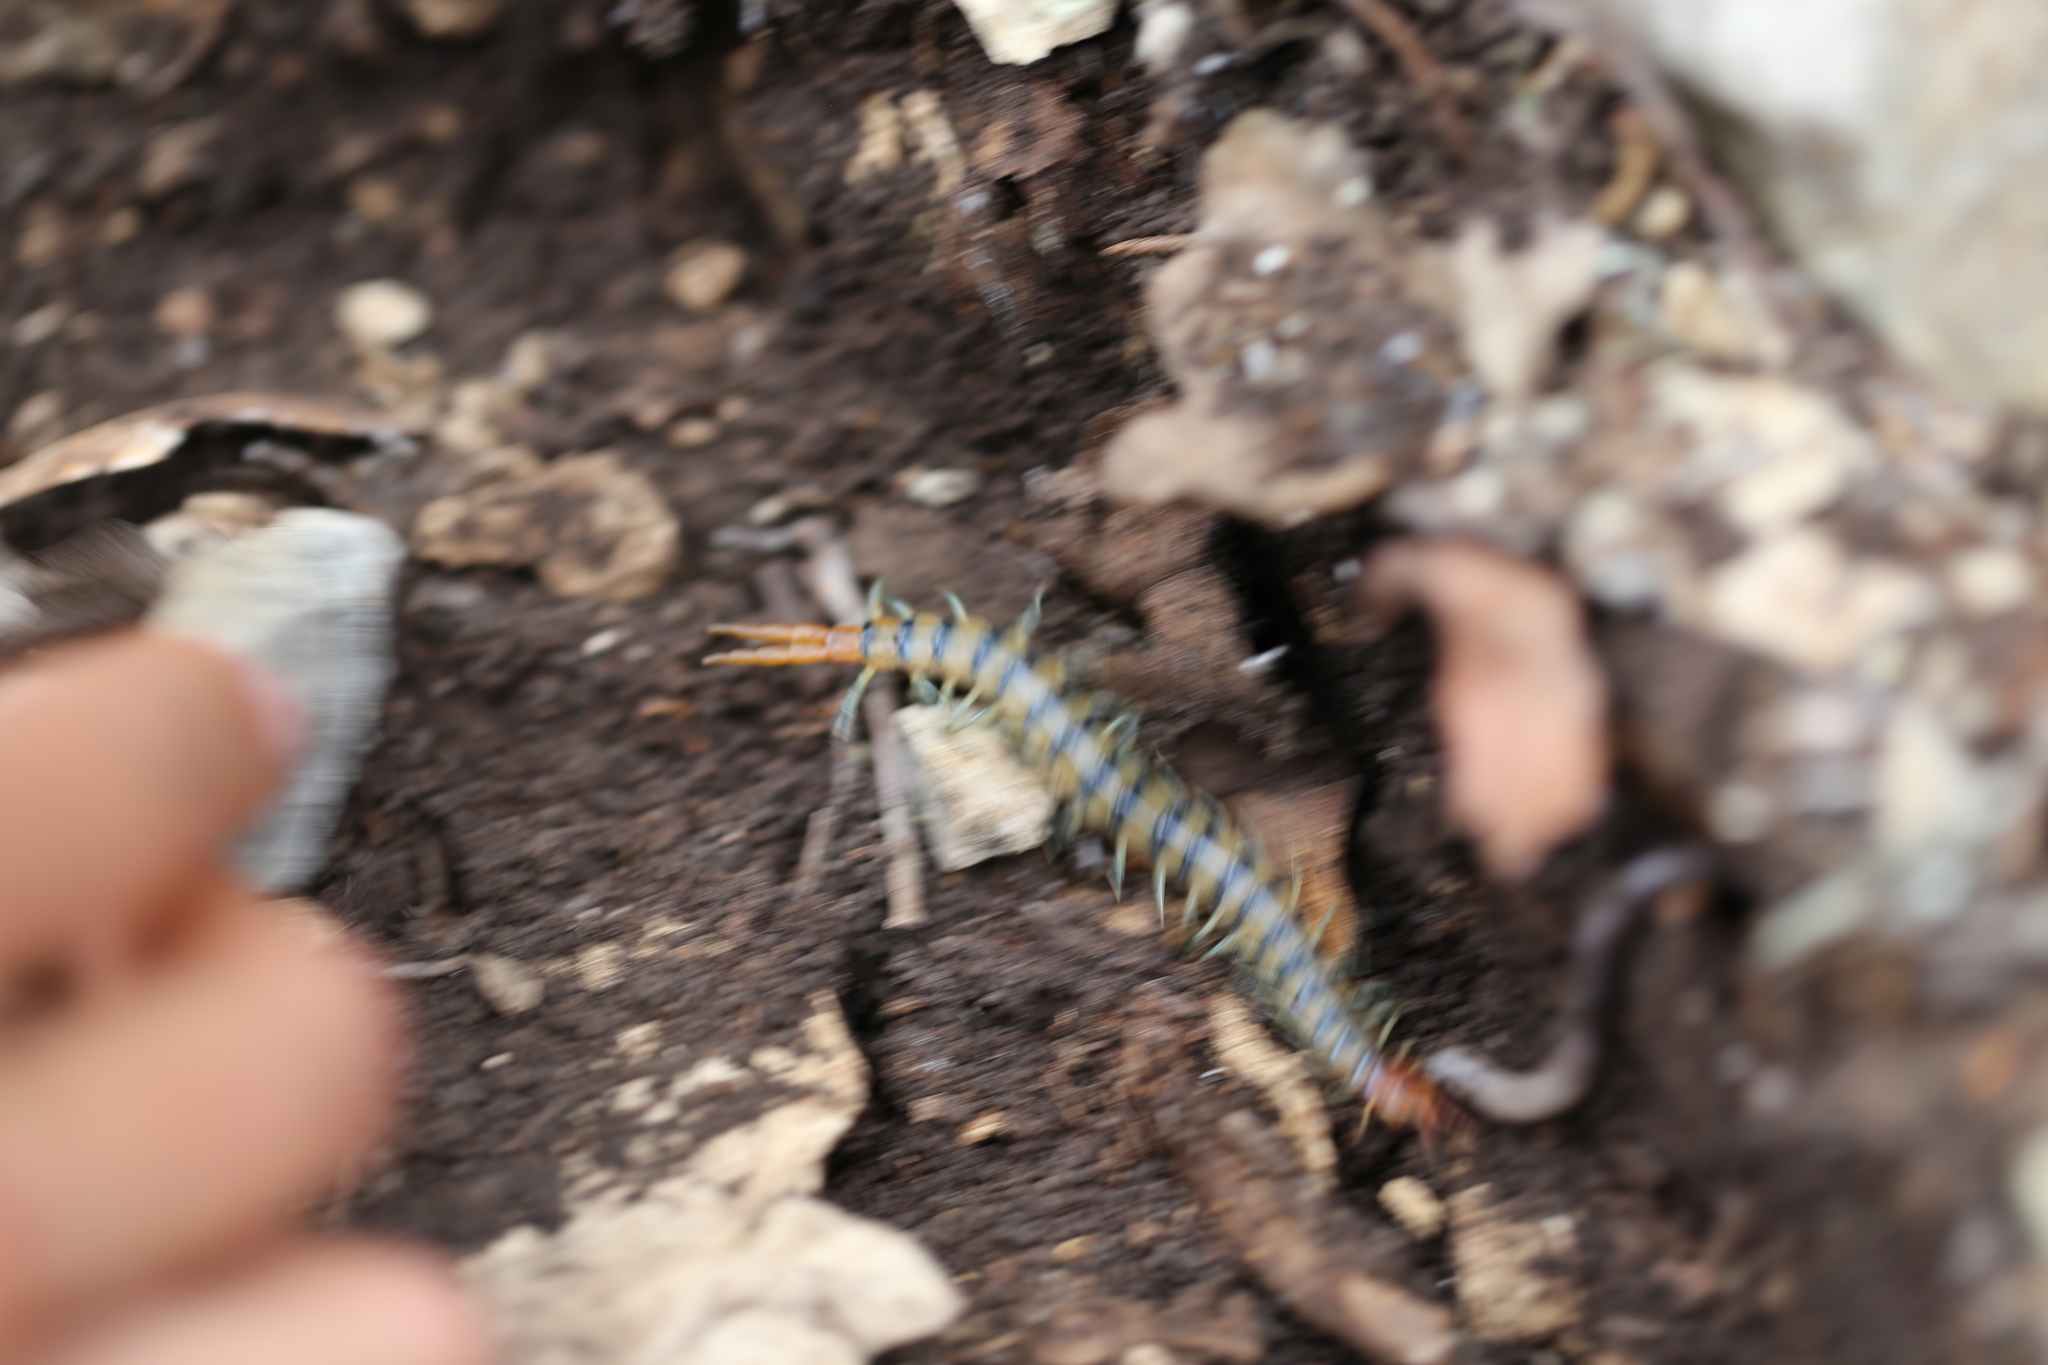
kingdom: Animalia
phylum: Arthropoda
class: Chilopoda
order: Scolopendromorpha
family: Scolopendridae
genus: Scolopendra
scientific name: Scolopendra polymorpha
